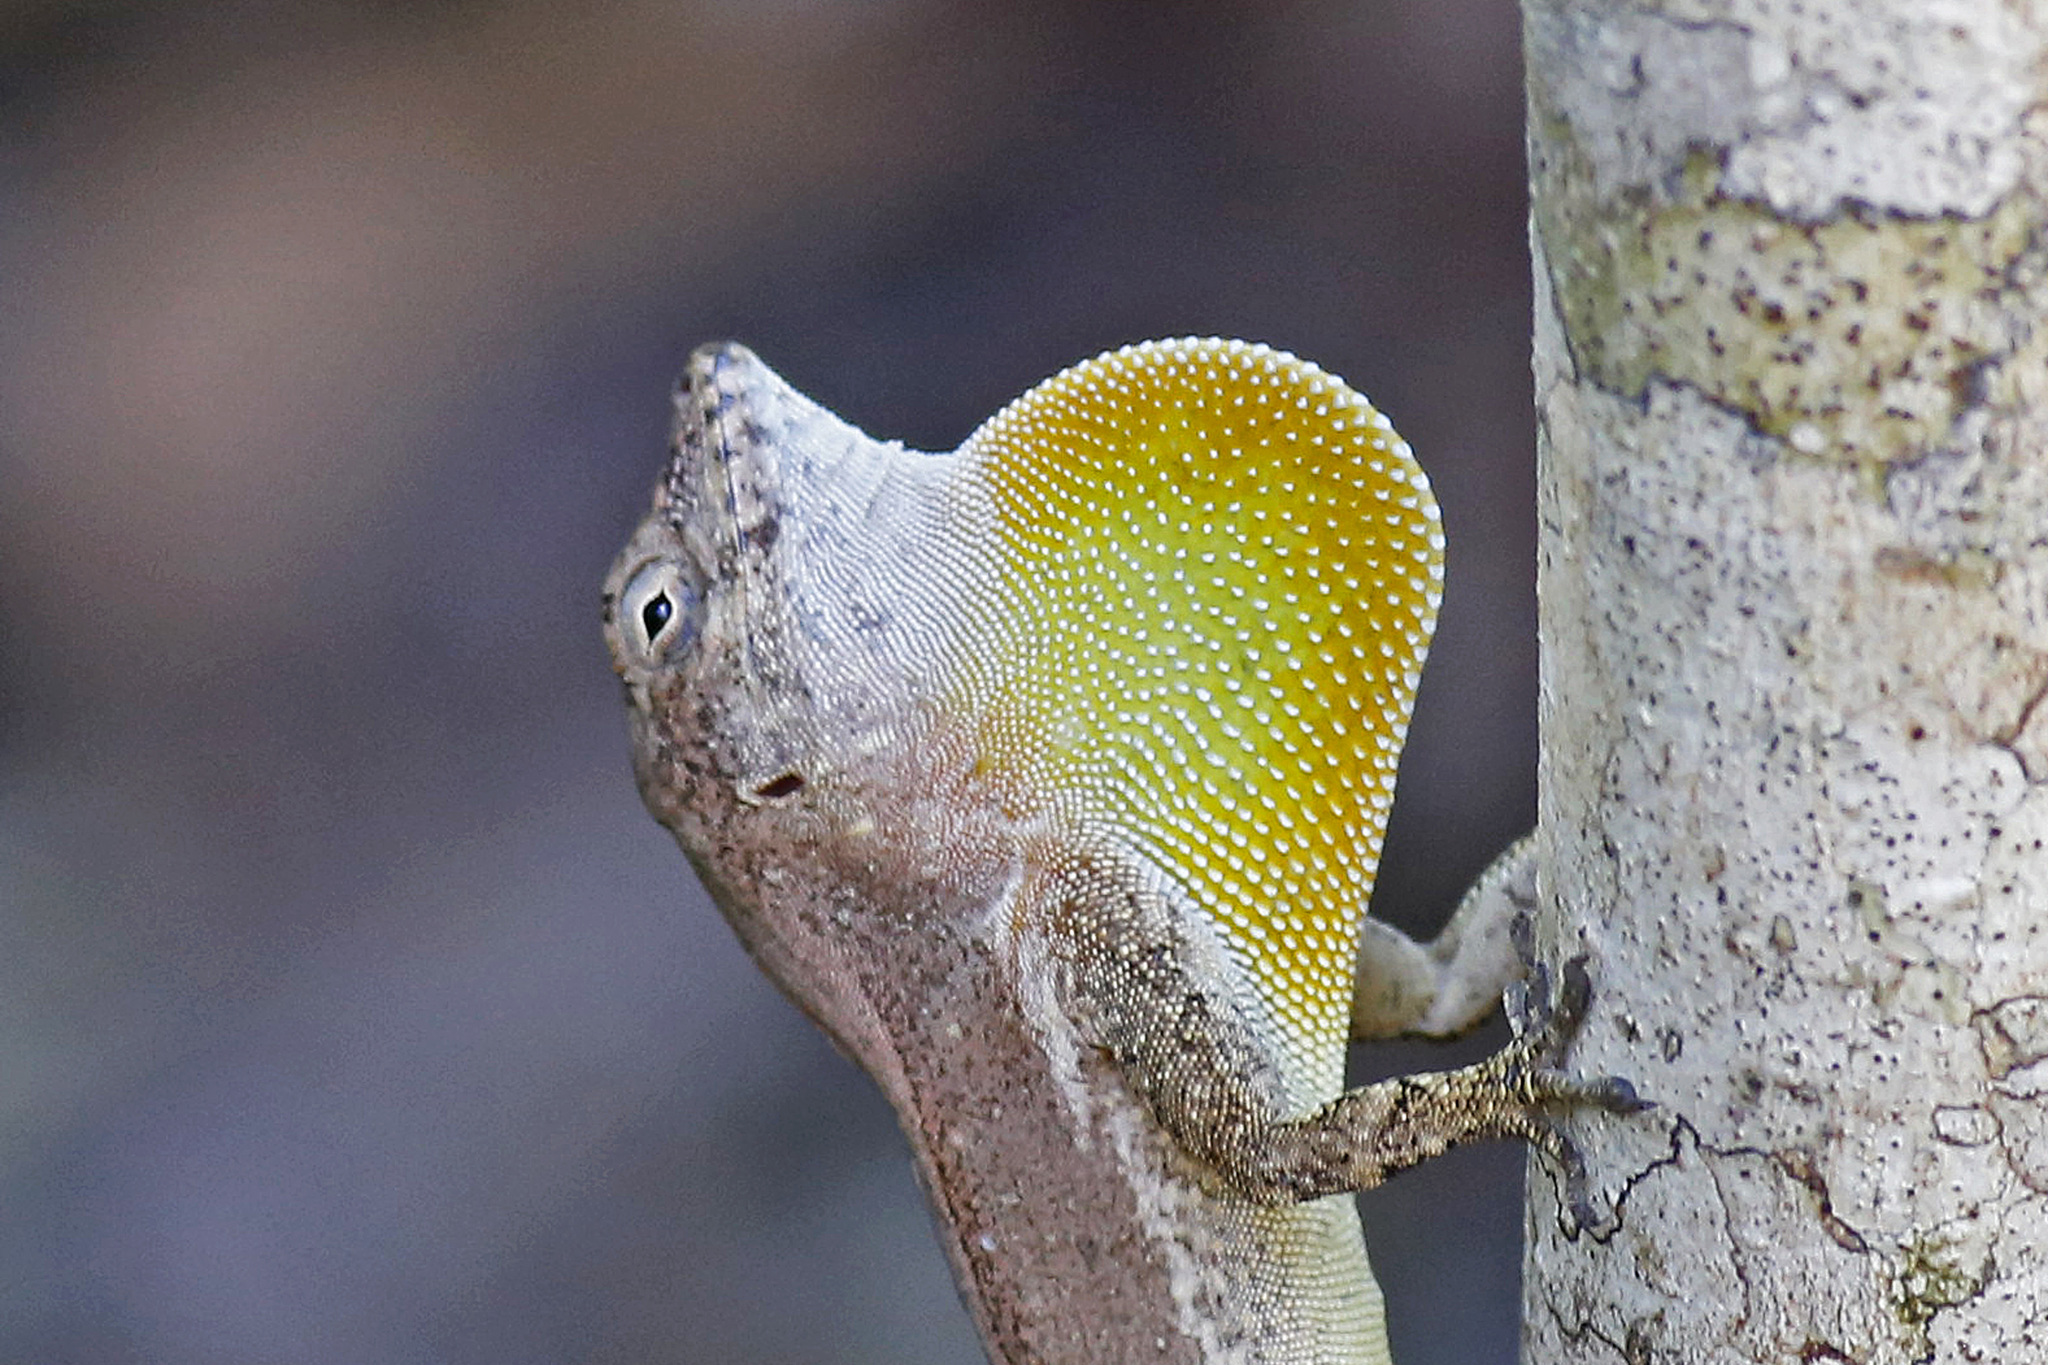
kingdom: Animalia
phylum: Chordata
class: Squamata
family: Dactyloidae
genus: Anolis
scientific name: Anolis cristatellus
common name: Crested anole
